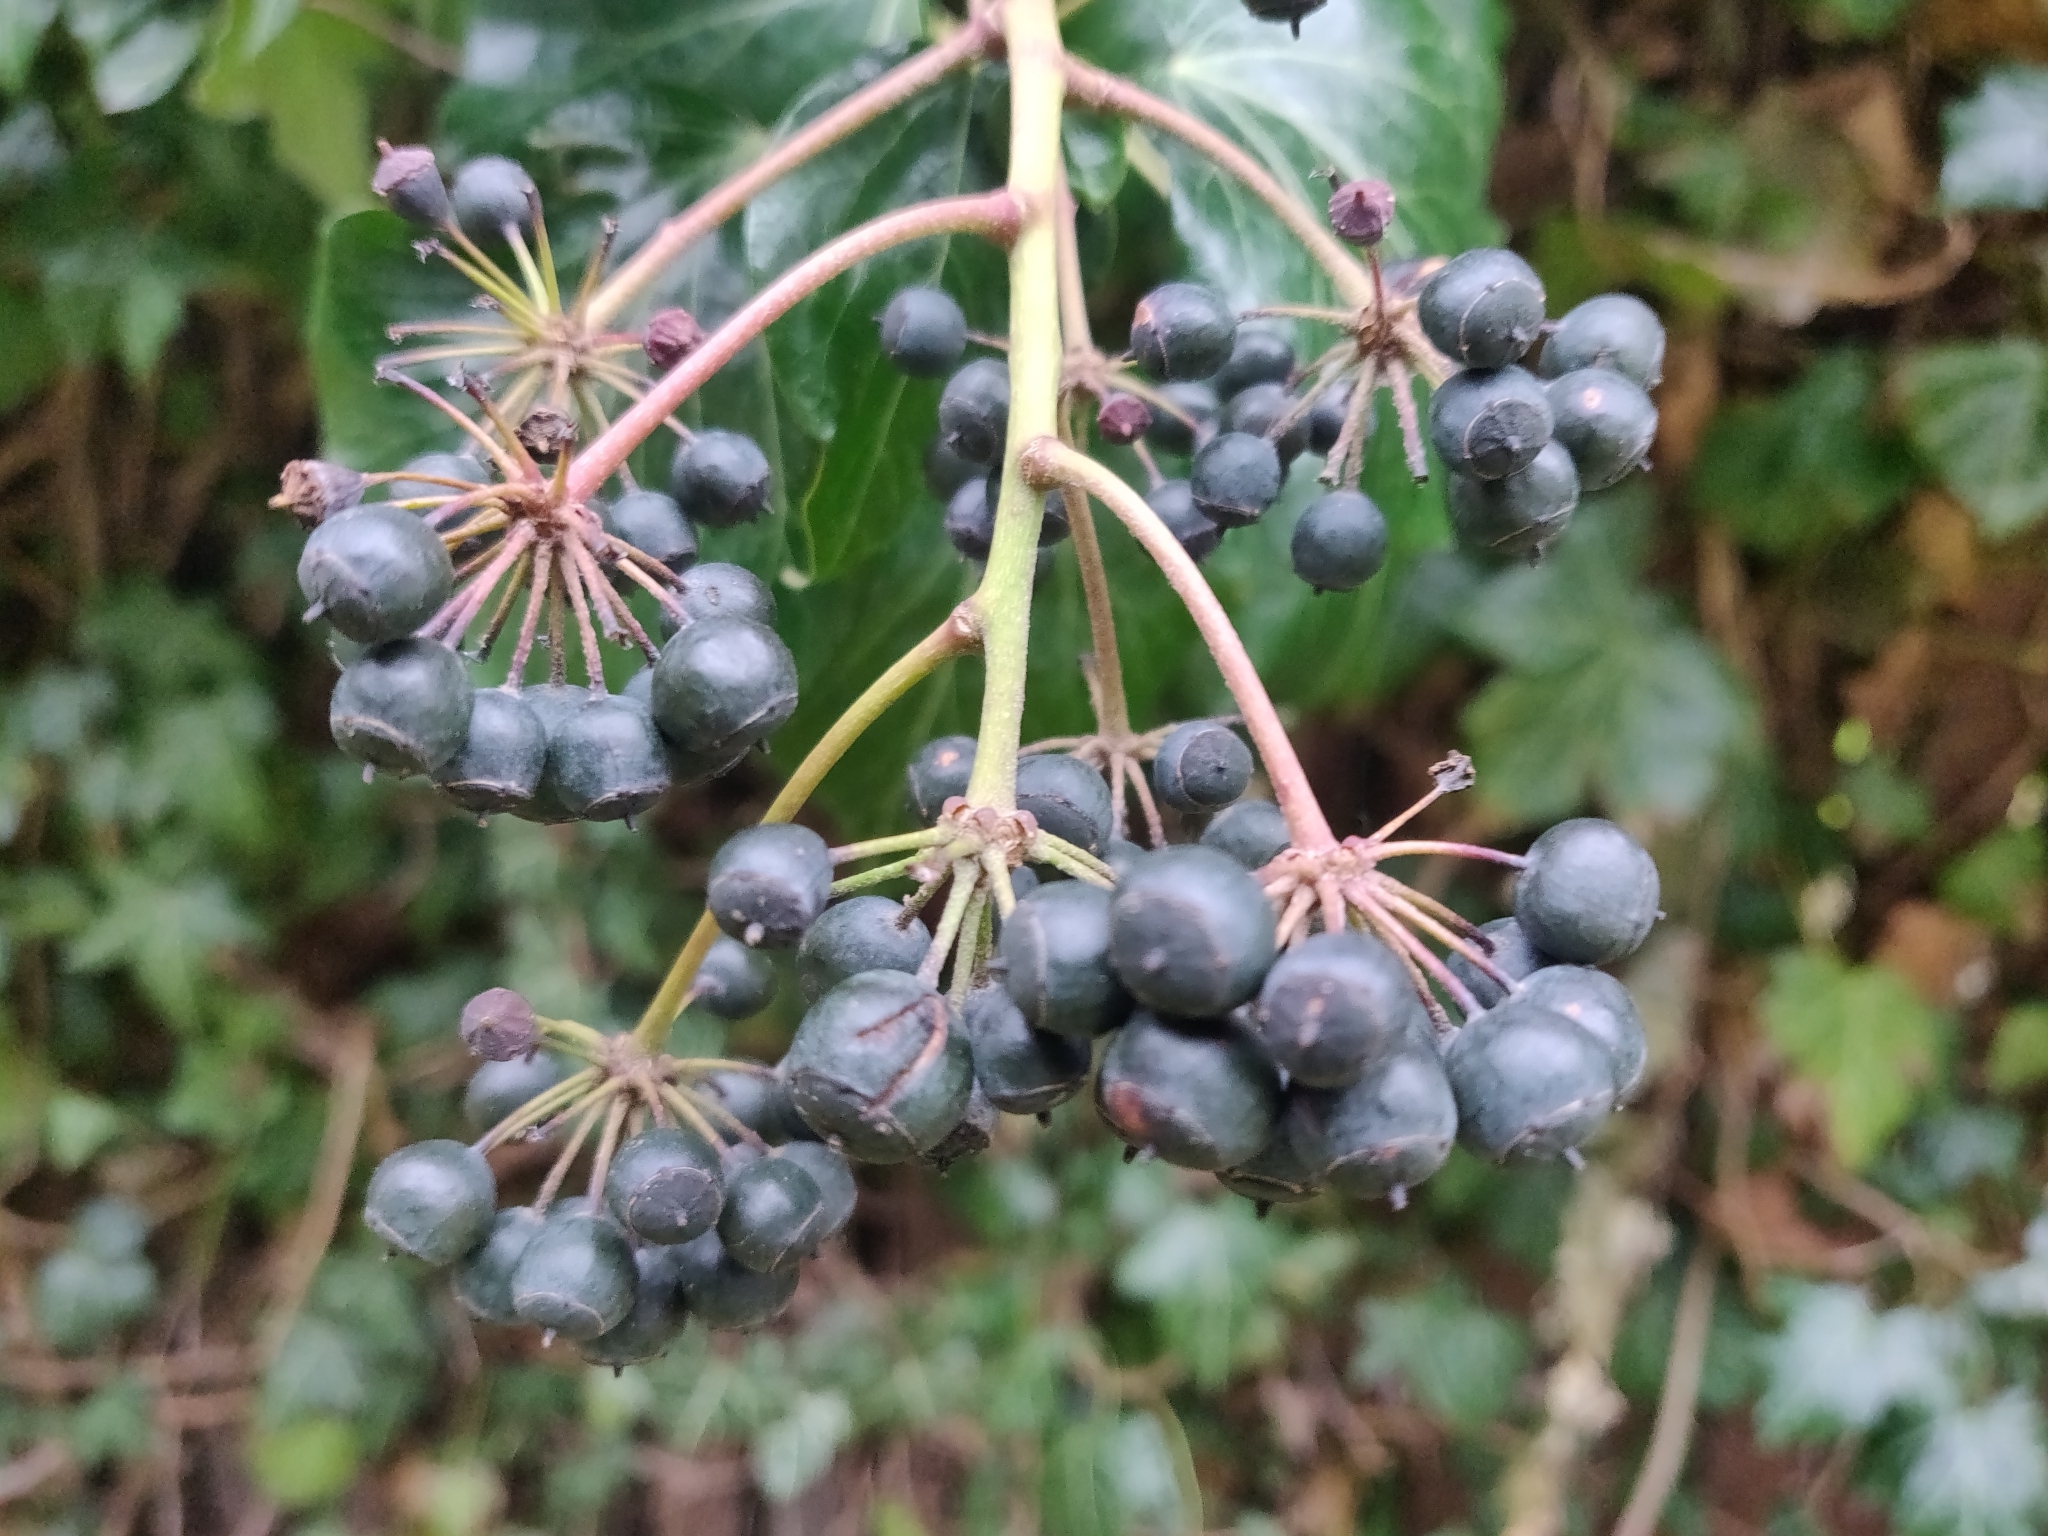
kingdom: Plantae
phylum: Tracheophyta
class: Magnoliopsida
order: Apiales
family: Araliaceae
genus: Hedera
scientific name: Hedera helix
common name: Ivy
